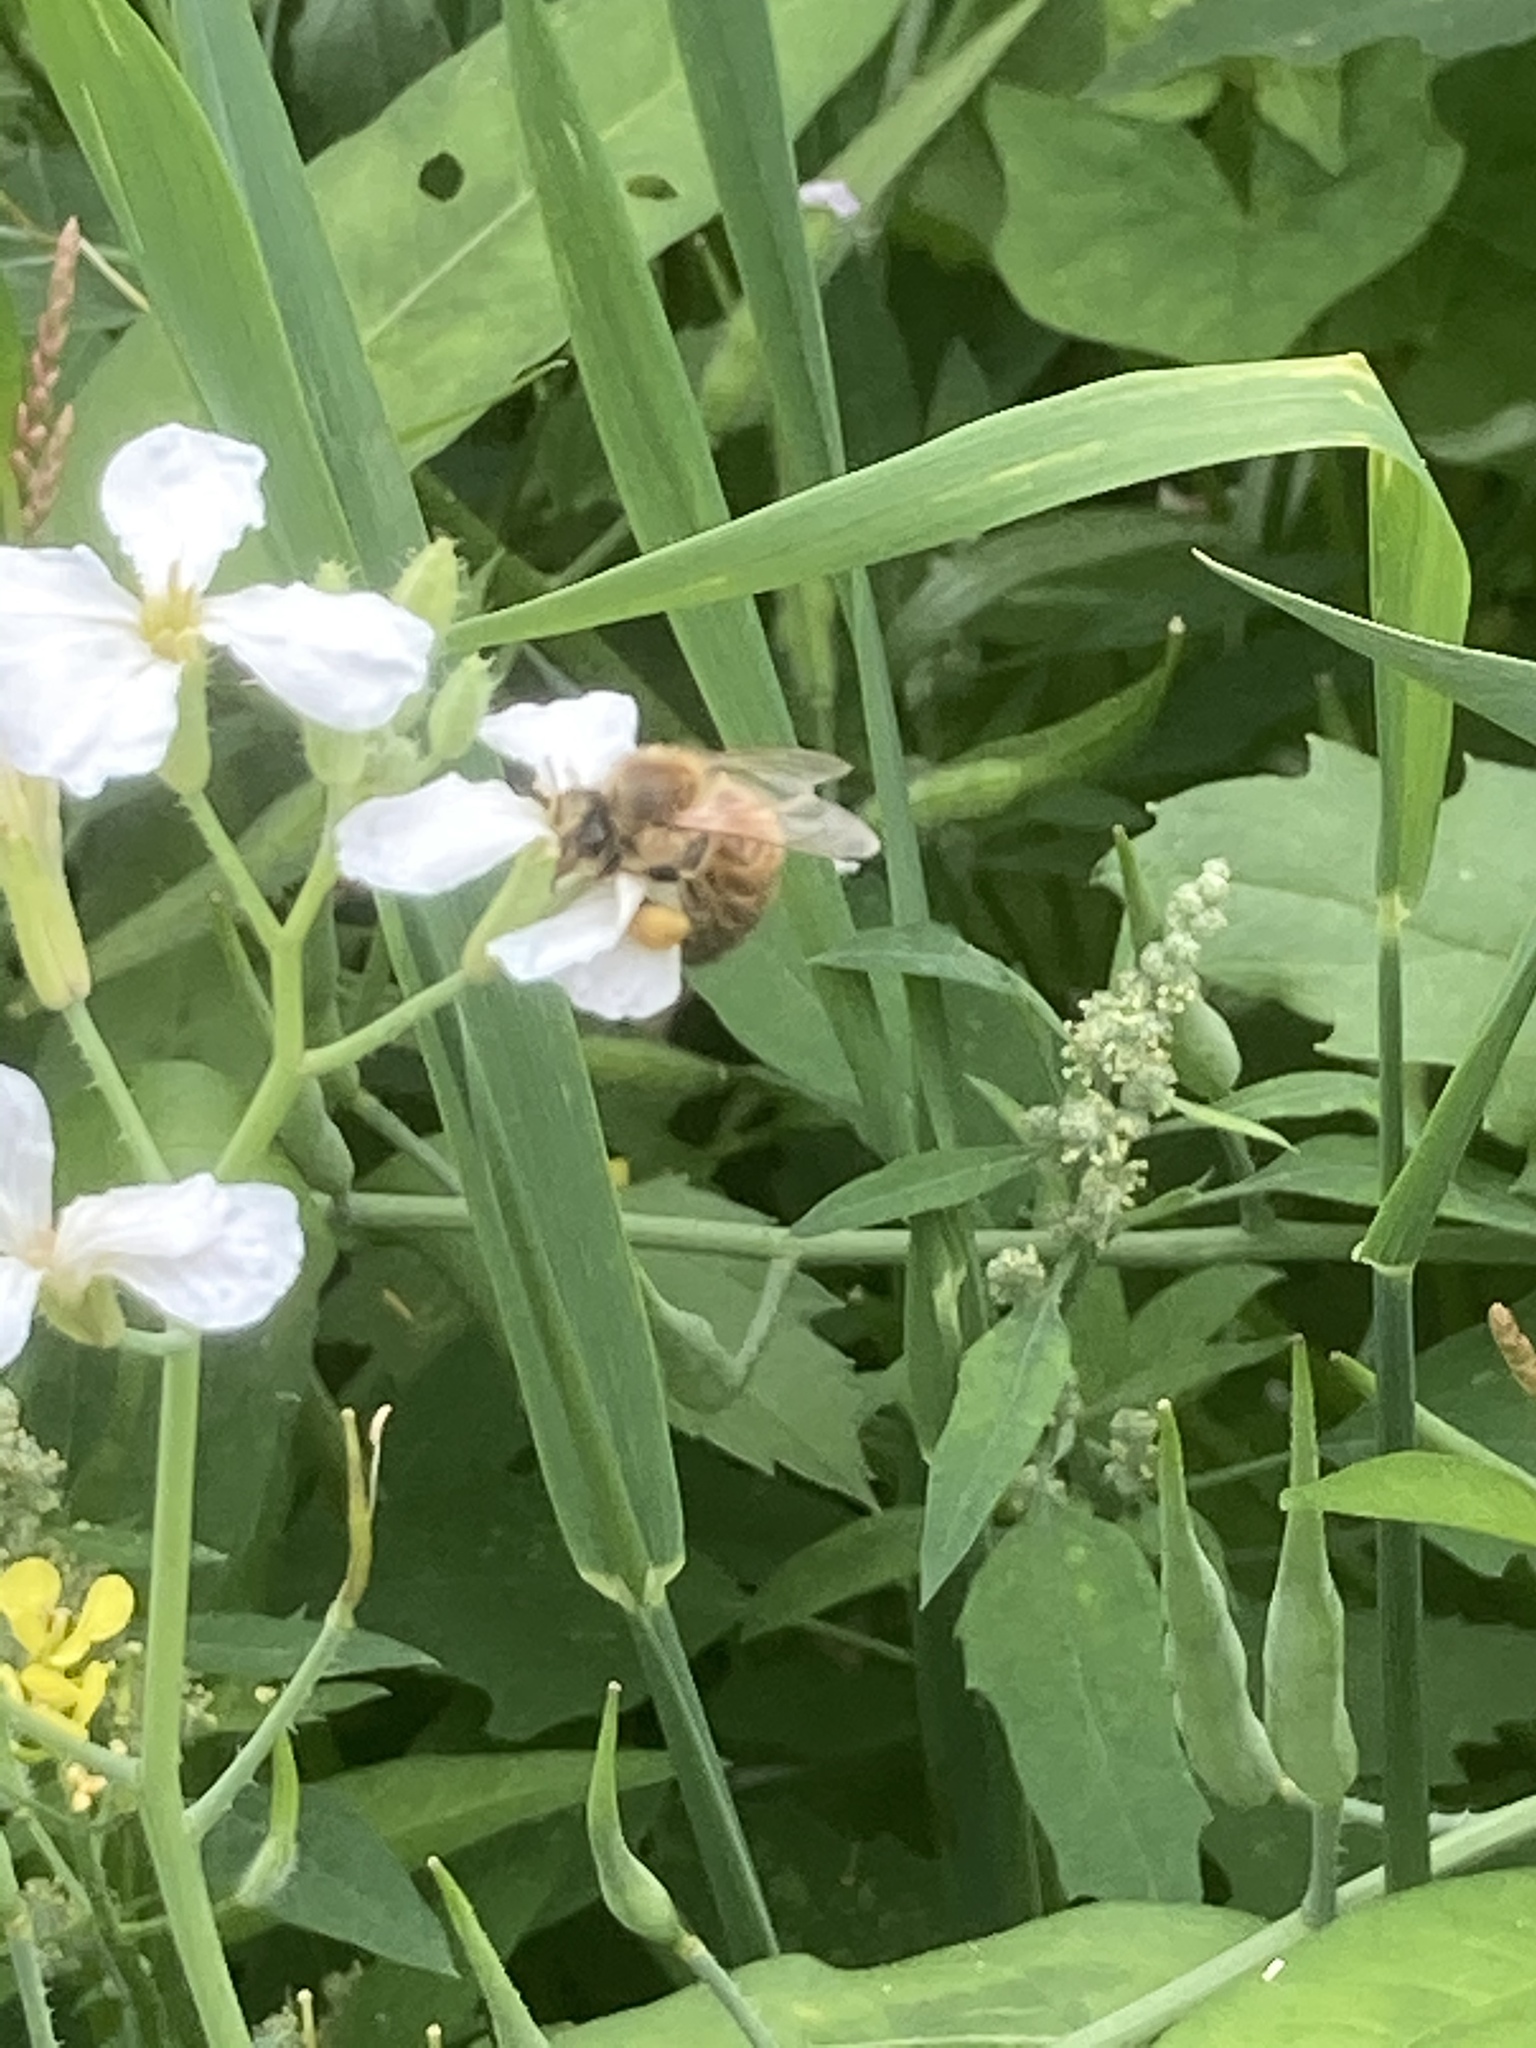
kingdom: Plantae
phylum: Tracheophyta
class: Magnoliopsida
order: Brassicales
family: Brassicaceae
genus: Raphanus
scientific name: Raphanus raphanistrum
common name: Wild radish
